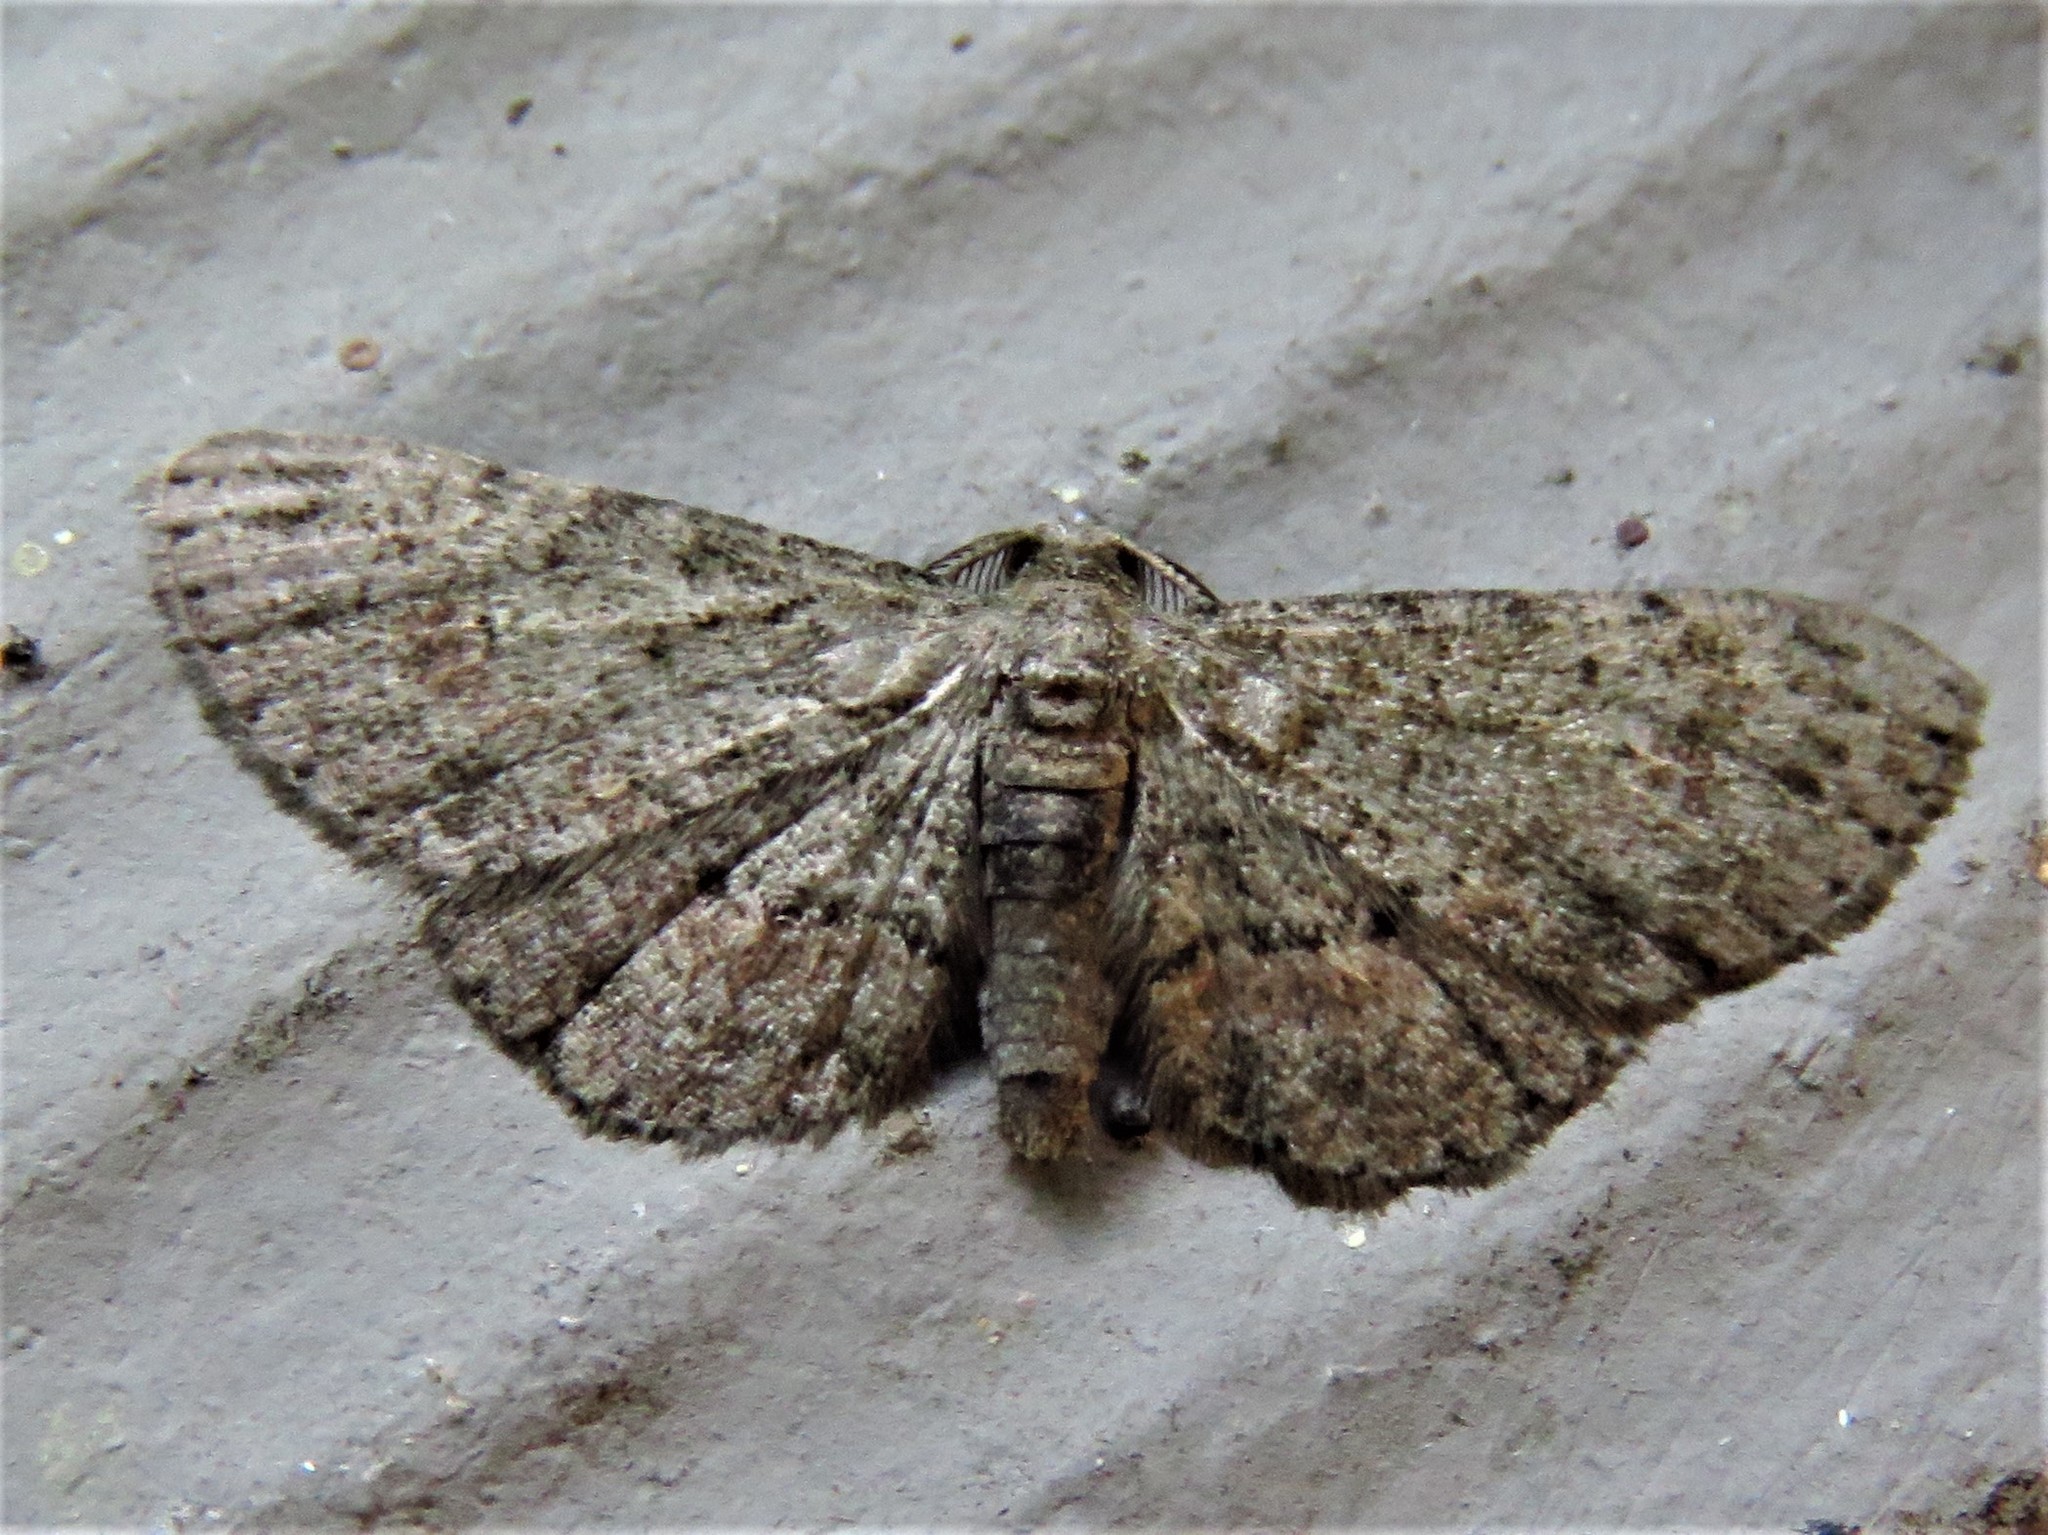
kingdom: Animalia
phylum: Arthropoda
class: Insecta
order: Lepidoptera
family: Geometridae
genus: Glenoides
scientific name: Glenoides texanaria
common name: Texas gray
